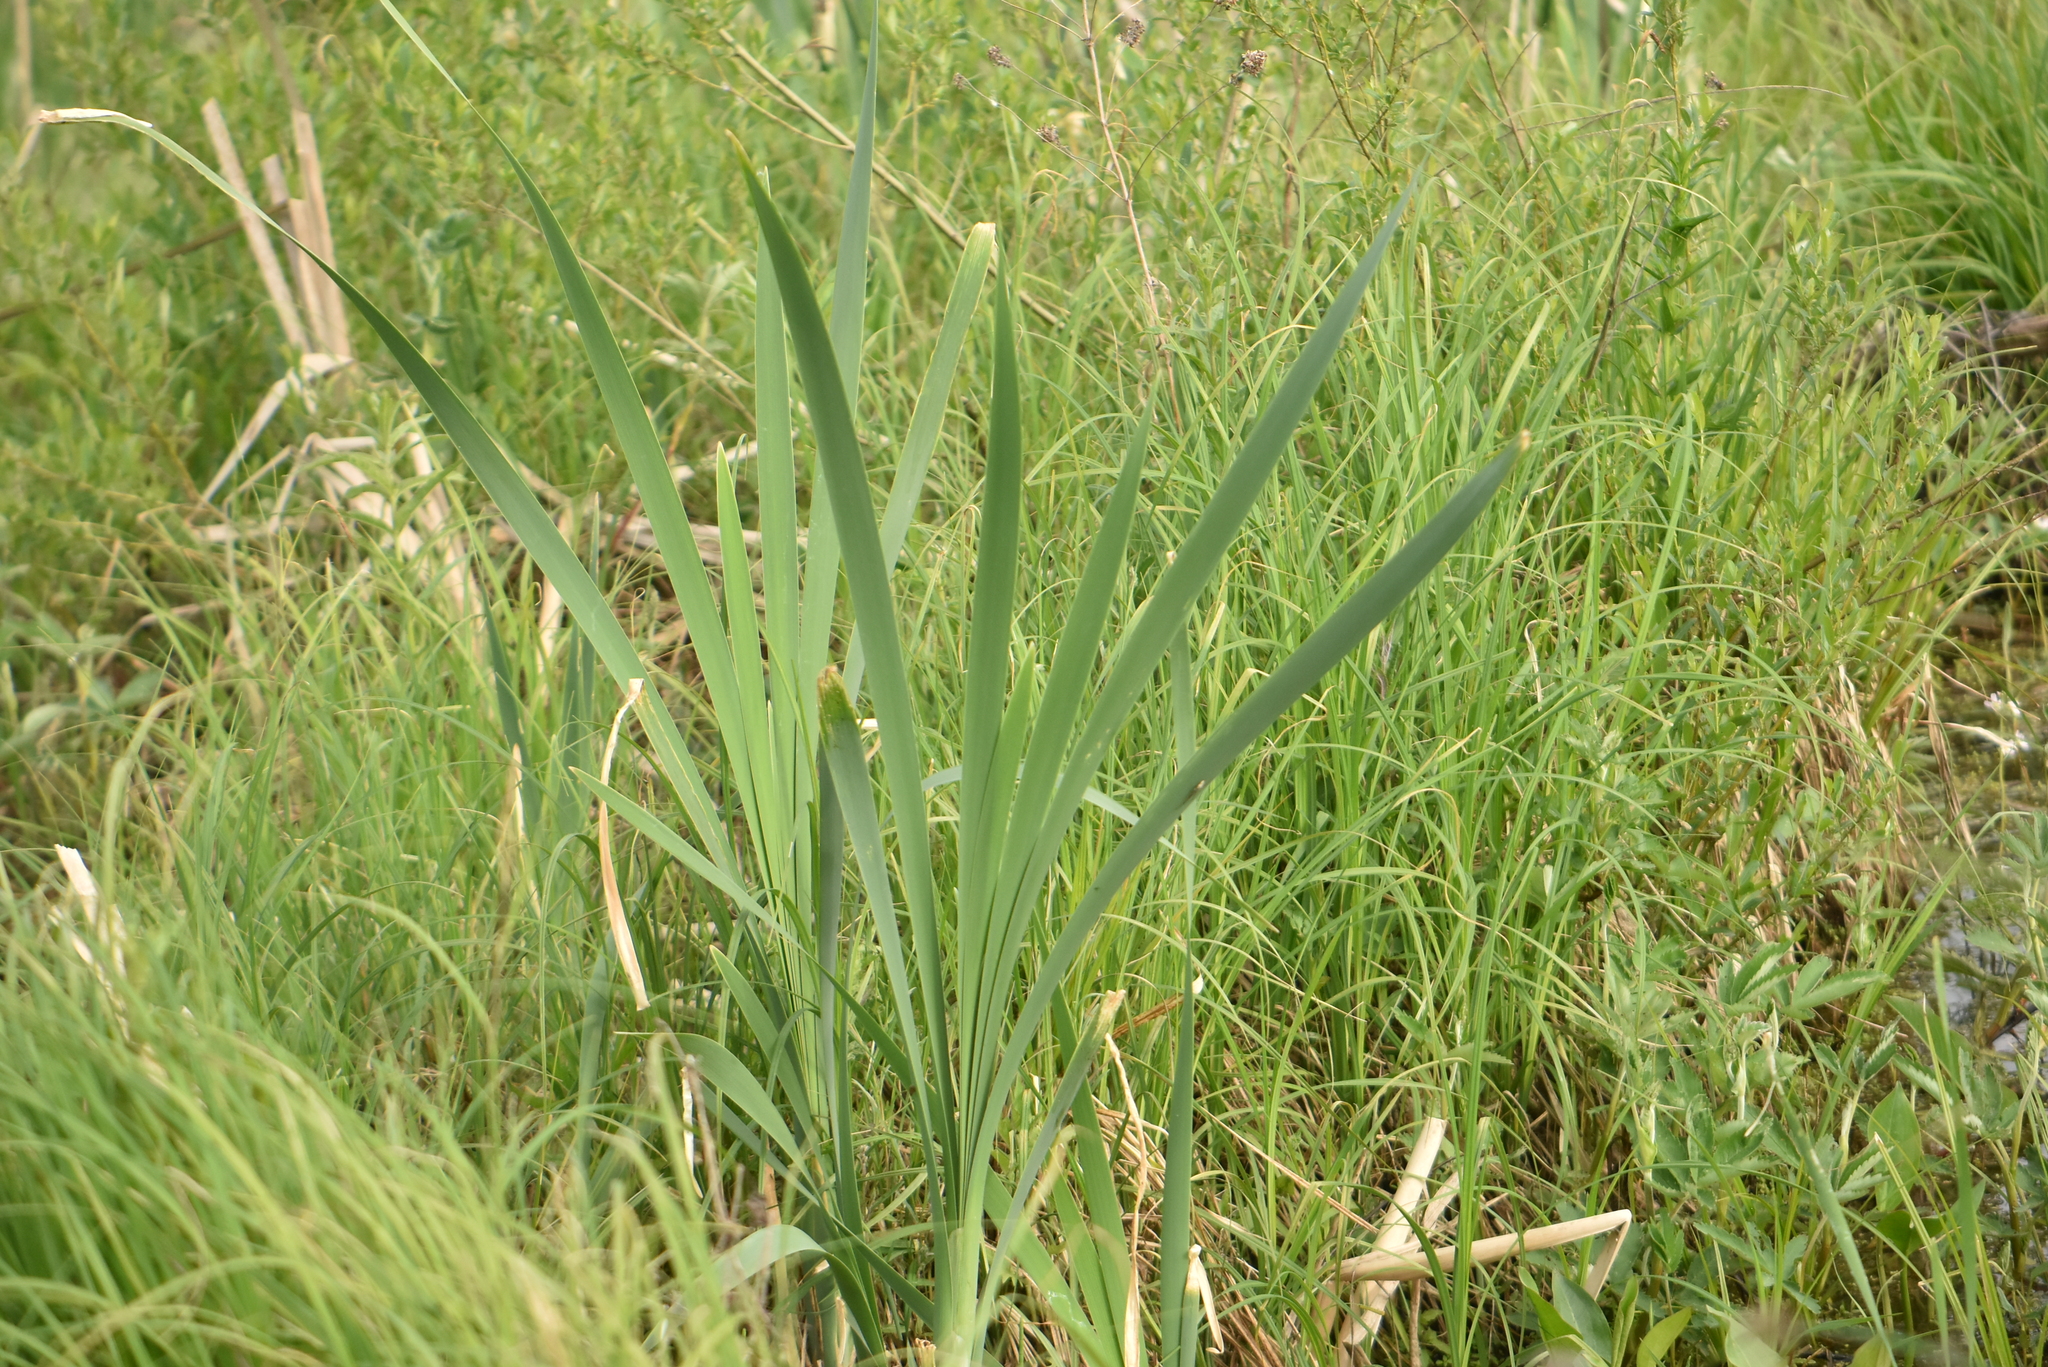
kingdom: Plantae
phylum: Tracheophyta
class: Liliopsida
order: Poales
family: Typhaceae
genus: Typha
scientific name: Typha latifolia
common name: Broadleaf cattail
